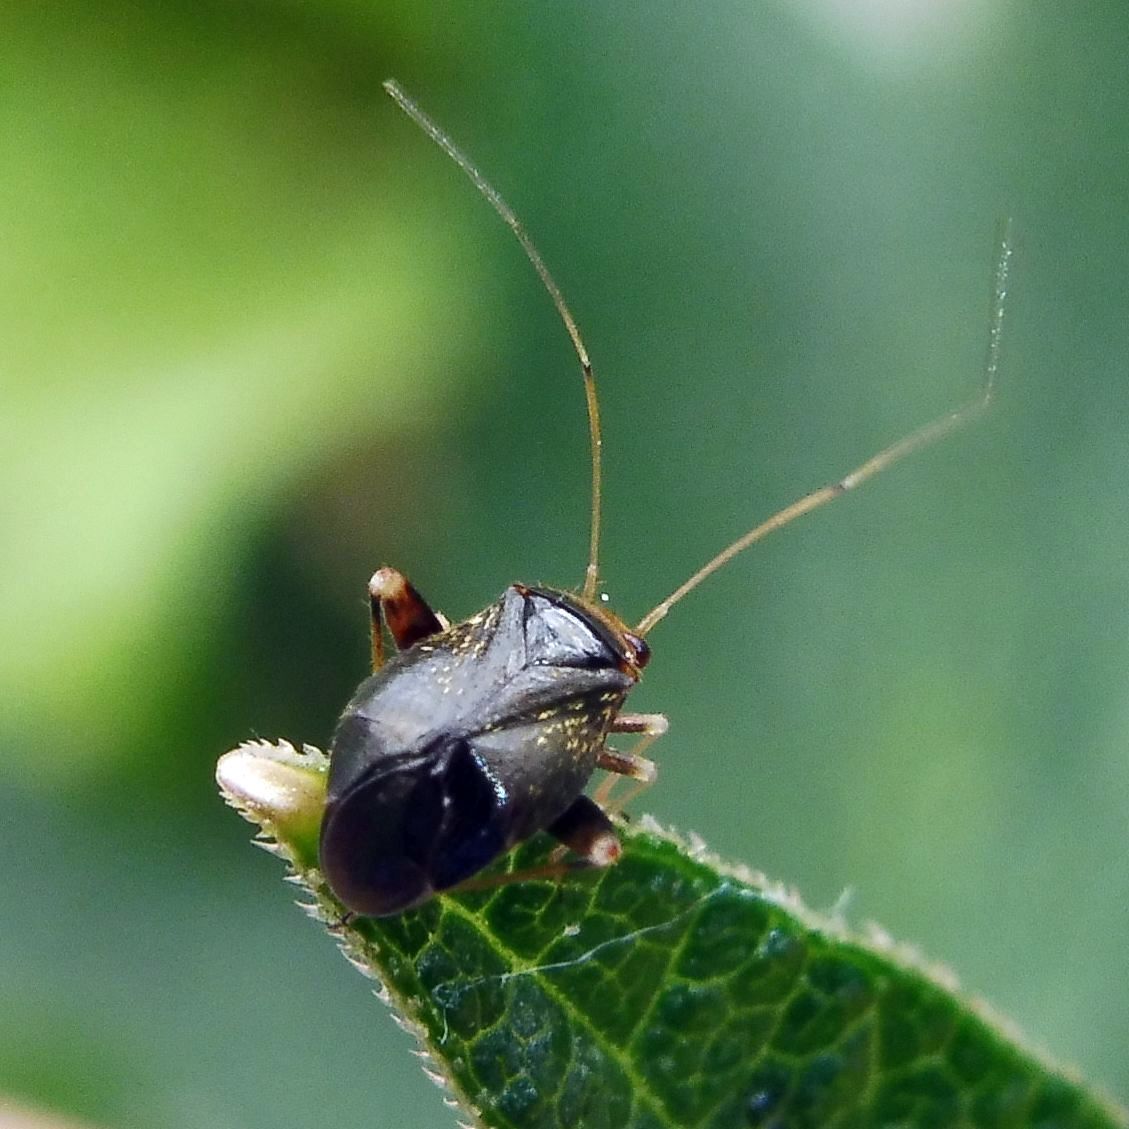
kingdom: Animalia
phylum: Arthropoda
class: Insecta
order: Hemiptera
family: Miridae
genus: Halticus
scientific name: Halticus luteicollis
